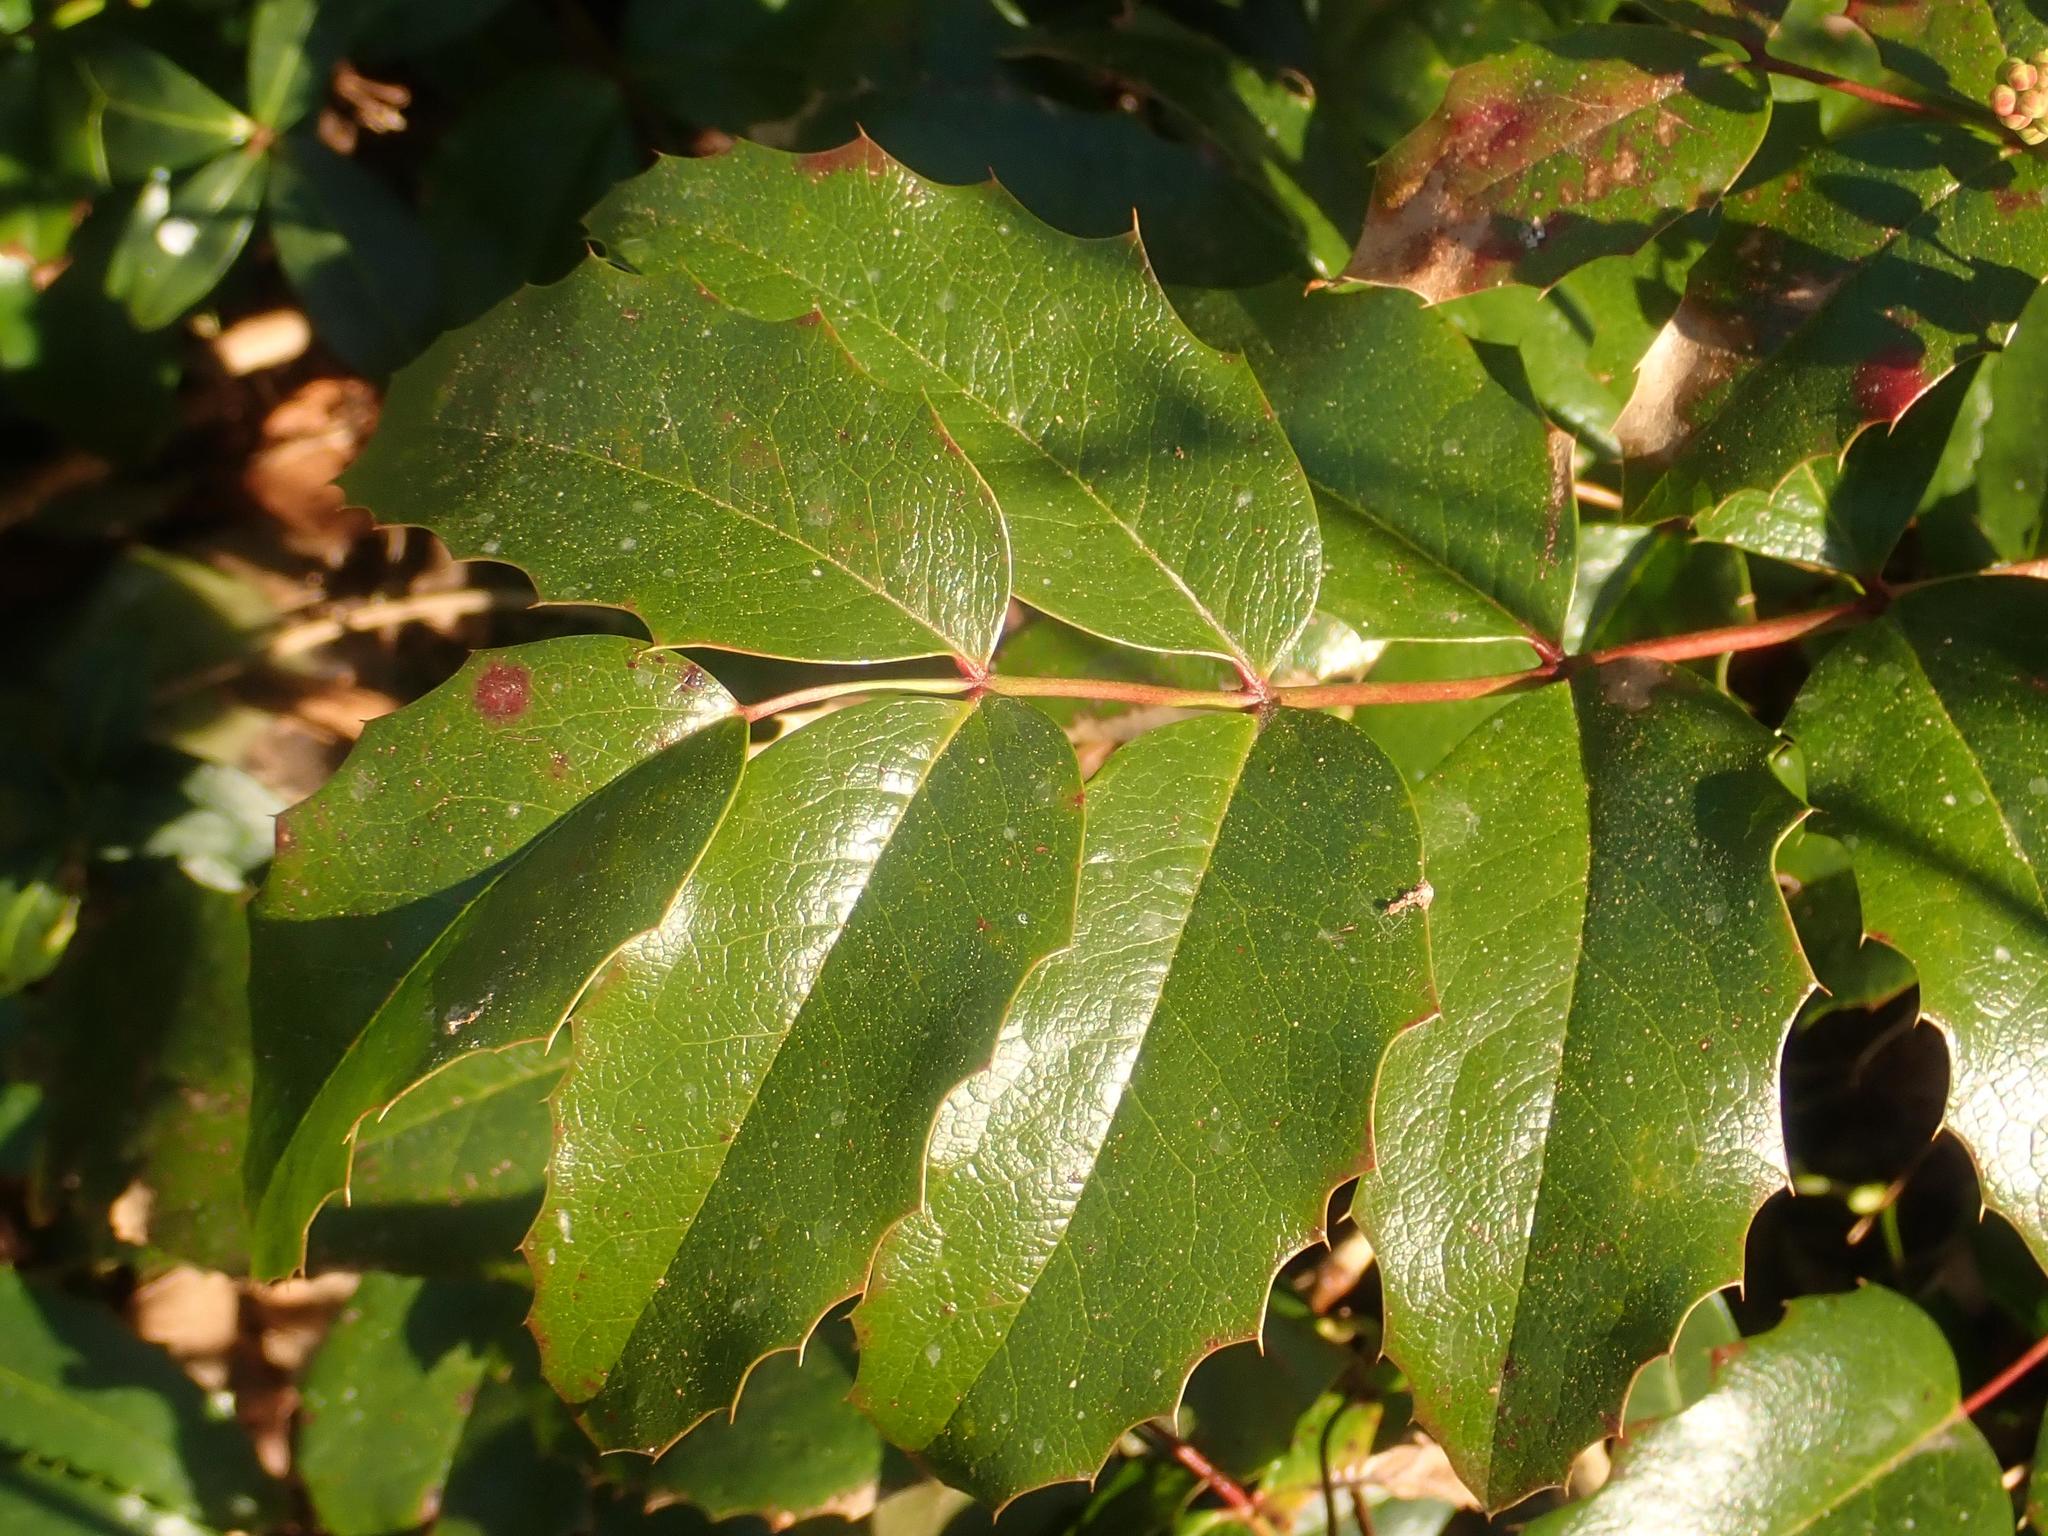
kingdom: Plantae
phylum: Tracheophyta
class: Magnoliopsida
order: Ranunculales
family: Berberidaceae
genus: Mahonia
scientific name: Mahonia aquifolium
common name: Oregon-grape
